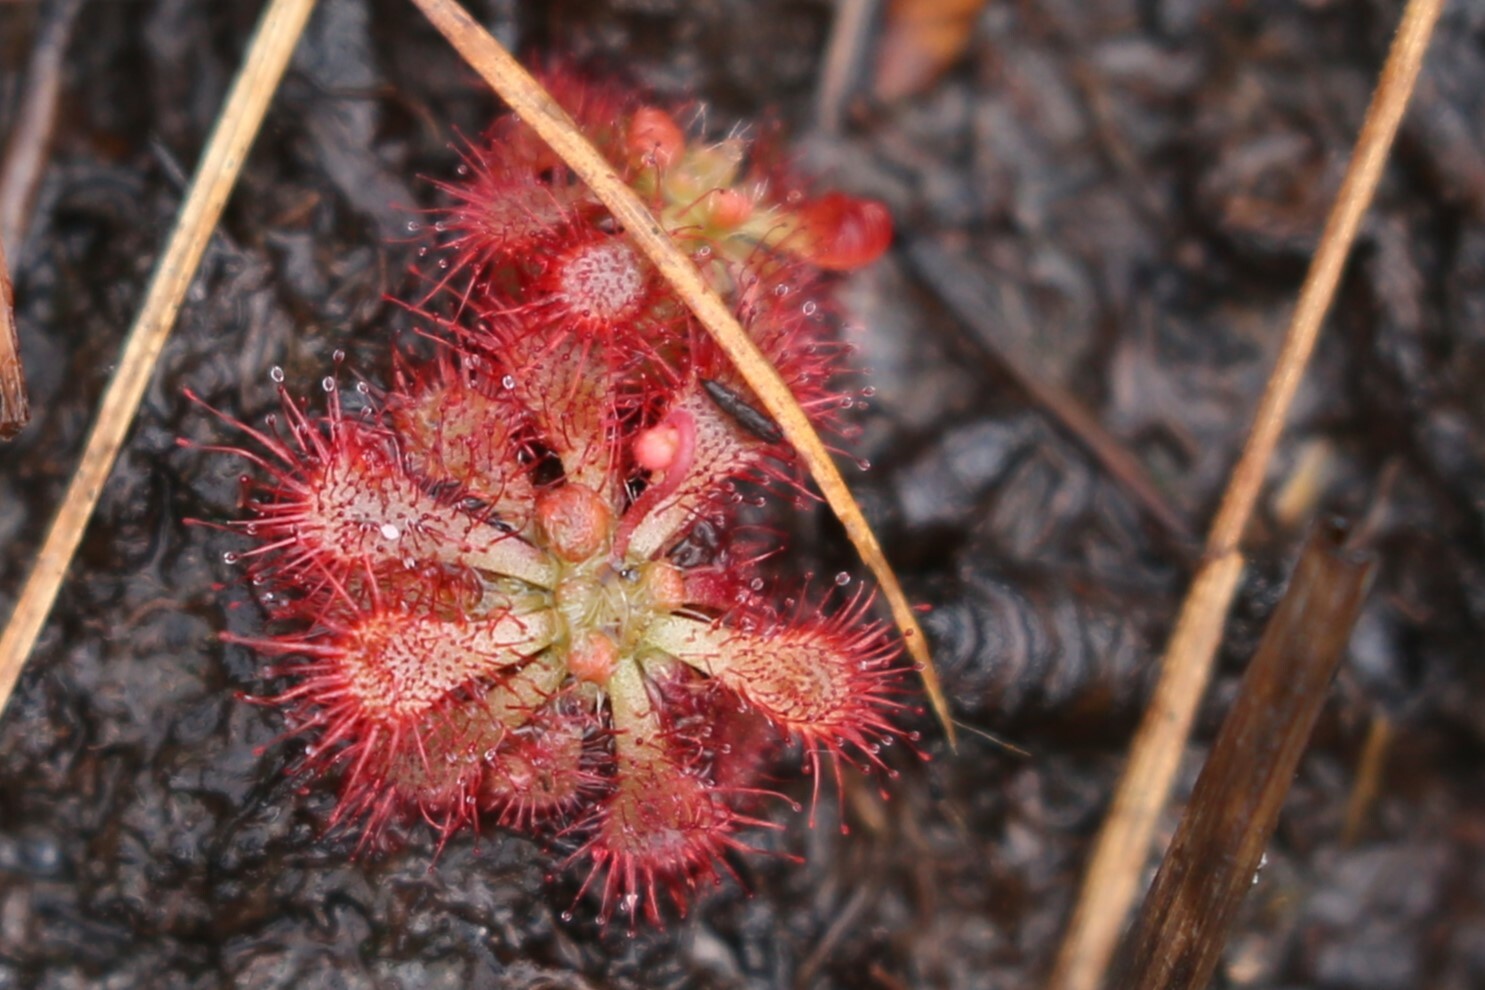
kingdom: Plantae
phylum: Tracheophyta
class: Magnoliopsida
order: Caryophyllales
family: Droseraceae
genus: Drosera
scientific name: Drosera spatulata
